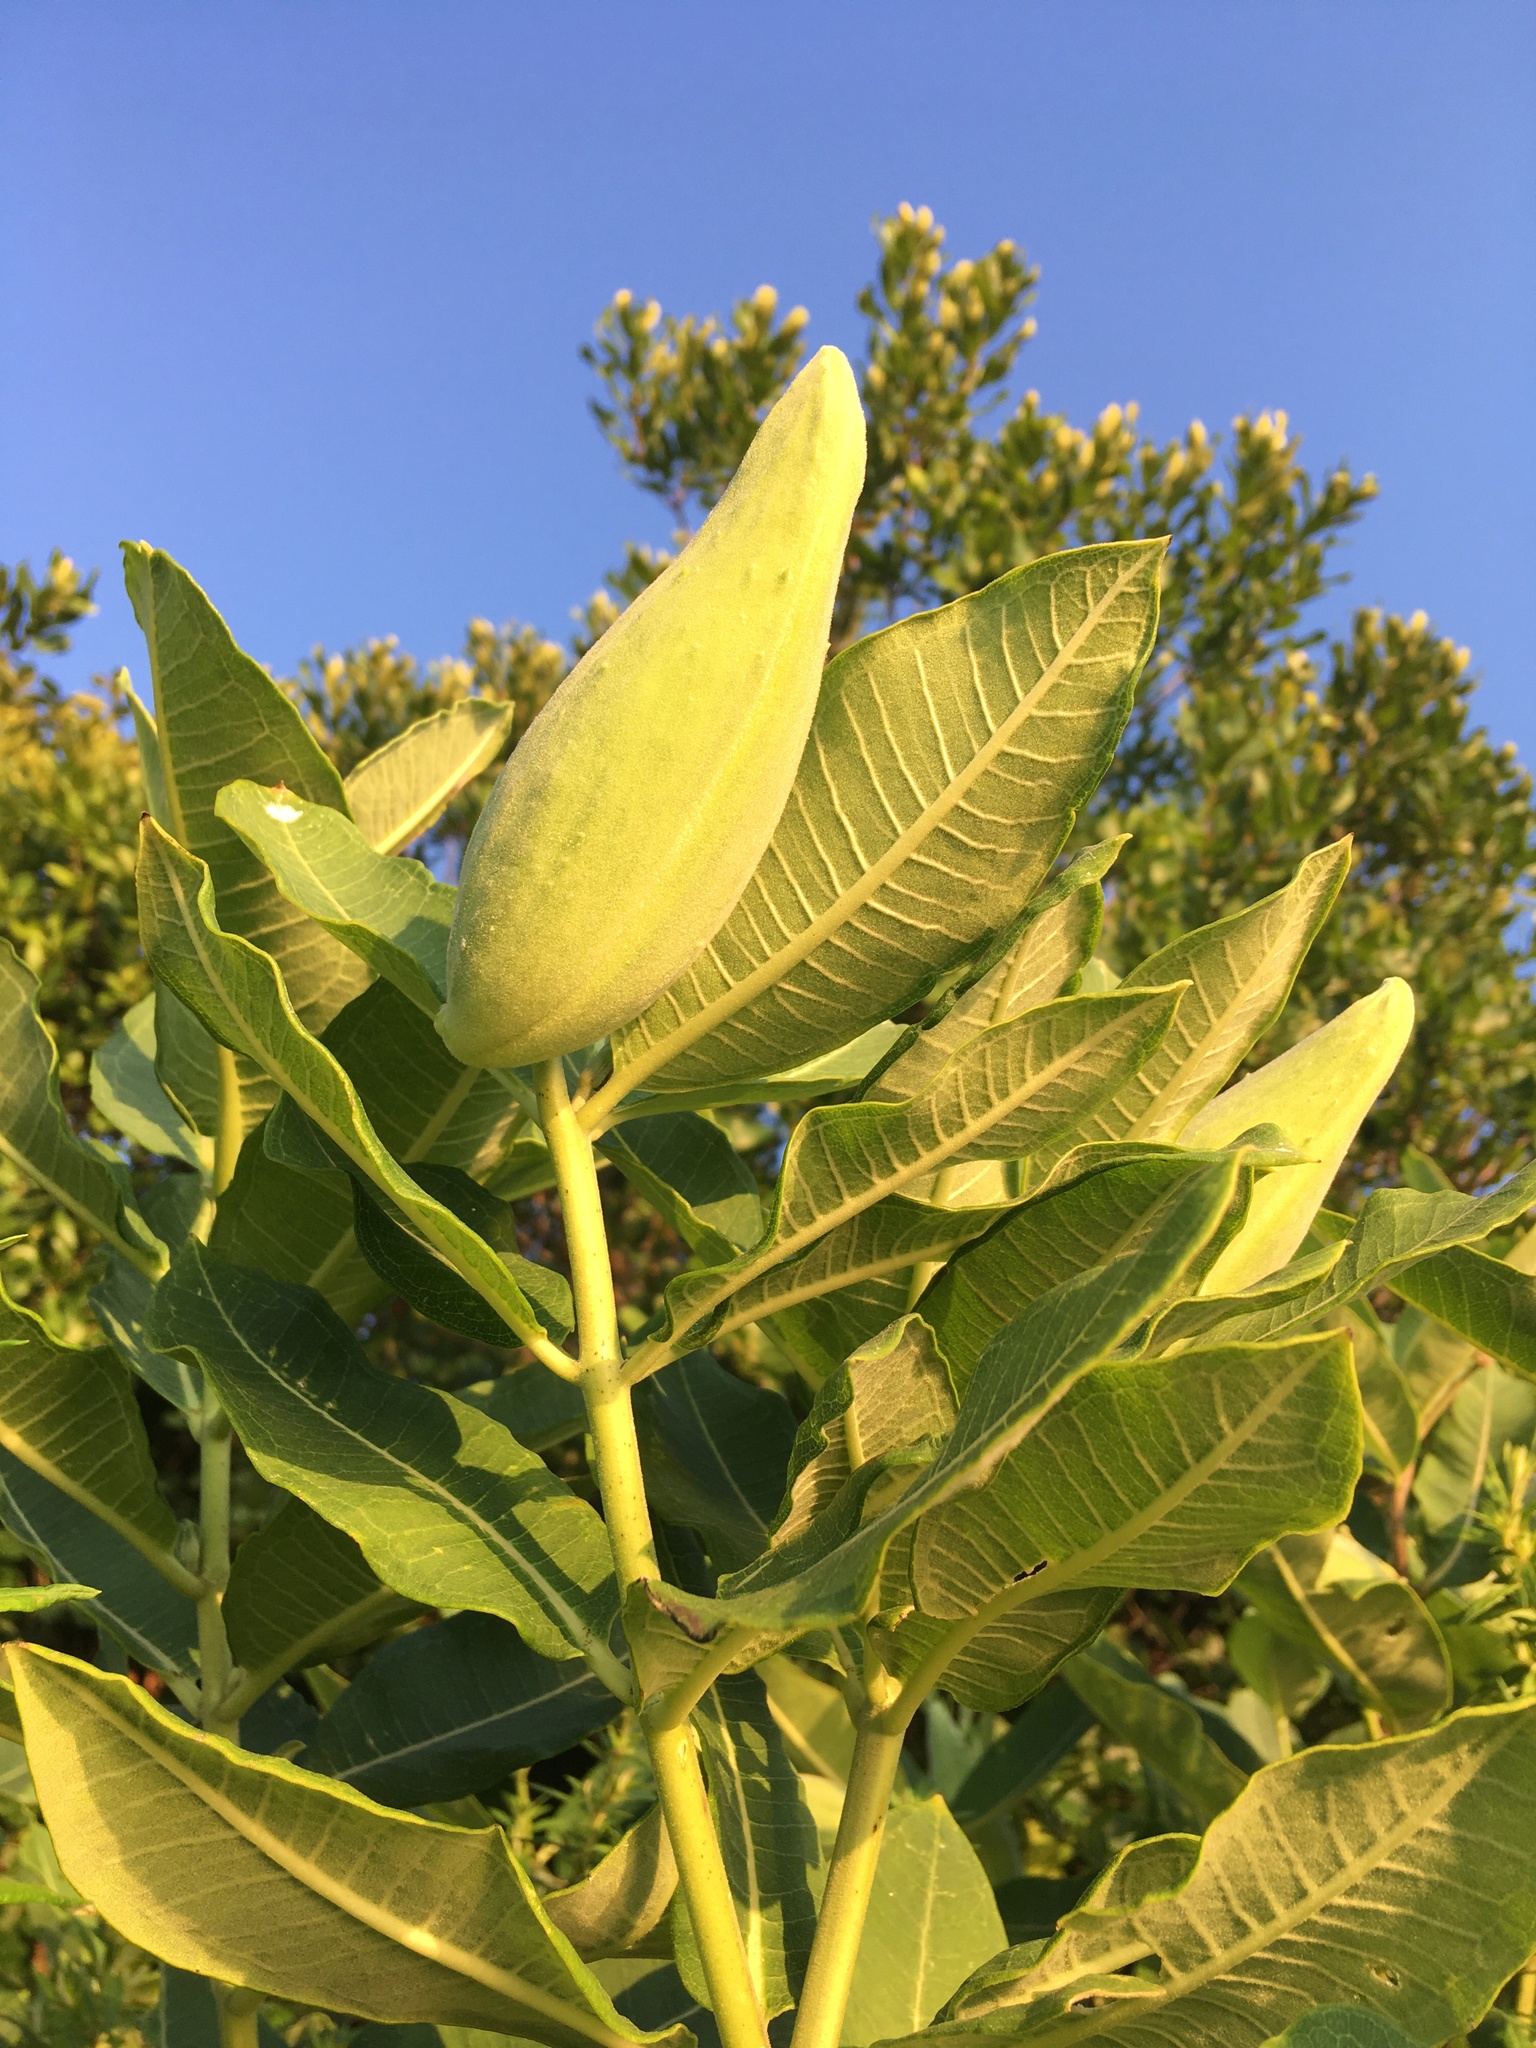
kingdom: Plantae
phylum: Tracheophyta
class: Magnoliopsida
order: Gentianales
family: Apocynaceae
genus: Asclepias
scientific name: Asclepias syriaca
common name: Common milkweed
